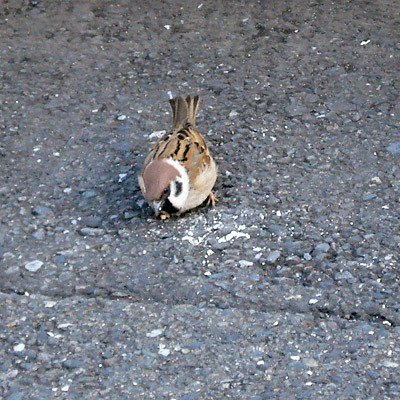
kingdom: Animalia
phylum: Chordata
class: Aves
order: Passeriformes
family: Passeridae
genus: Passer
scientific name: Passer montanus
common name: Eurasian tree sparrow
